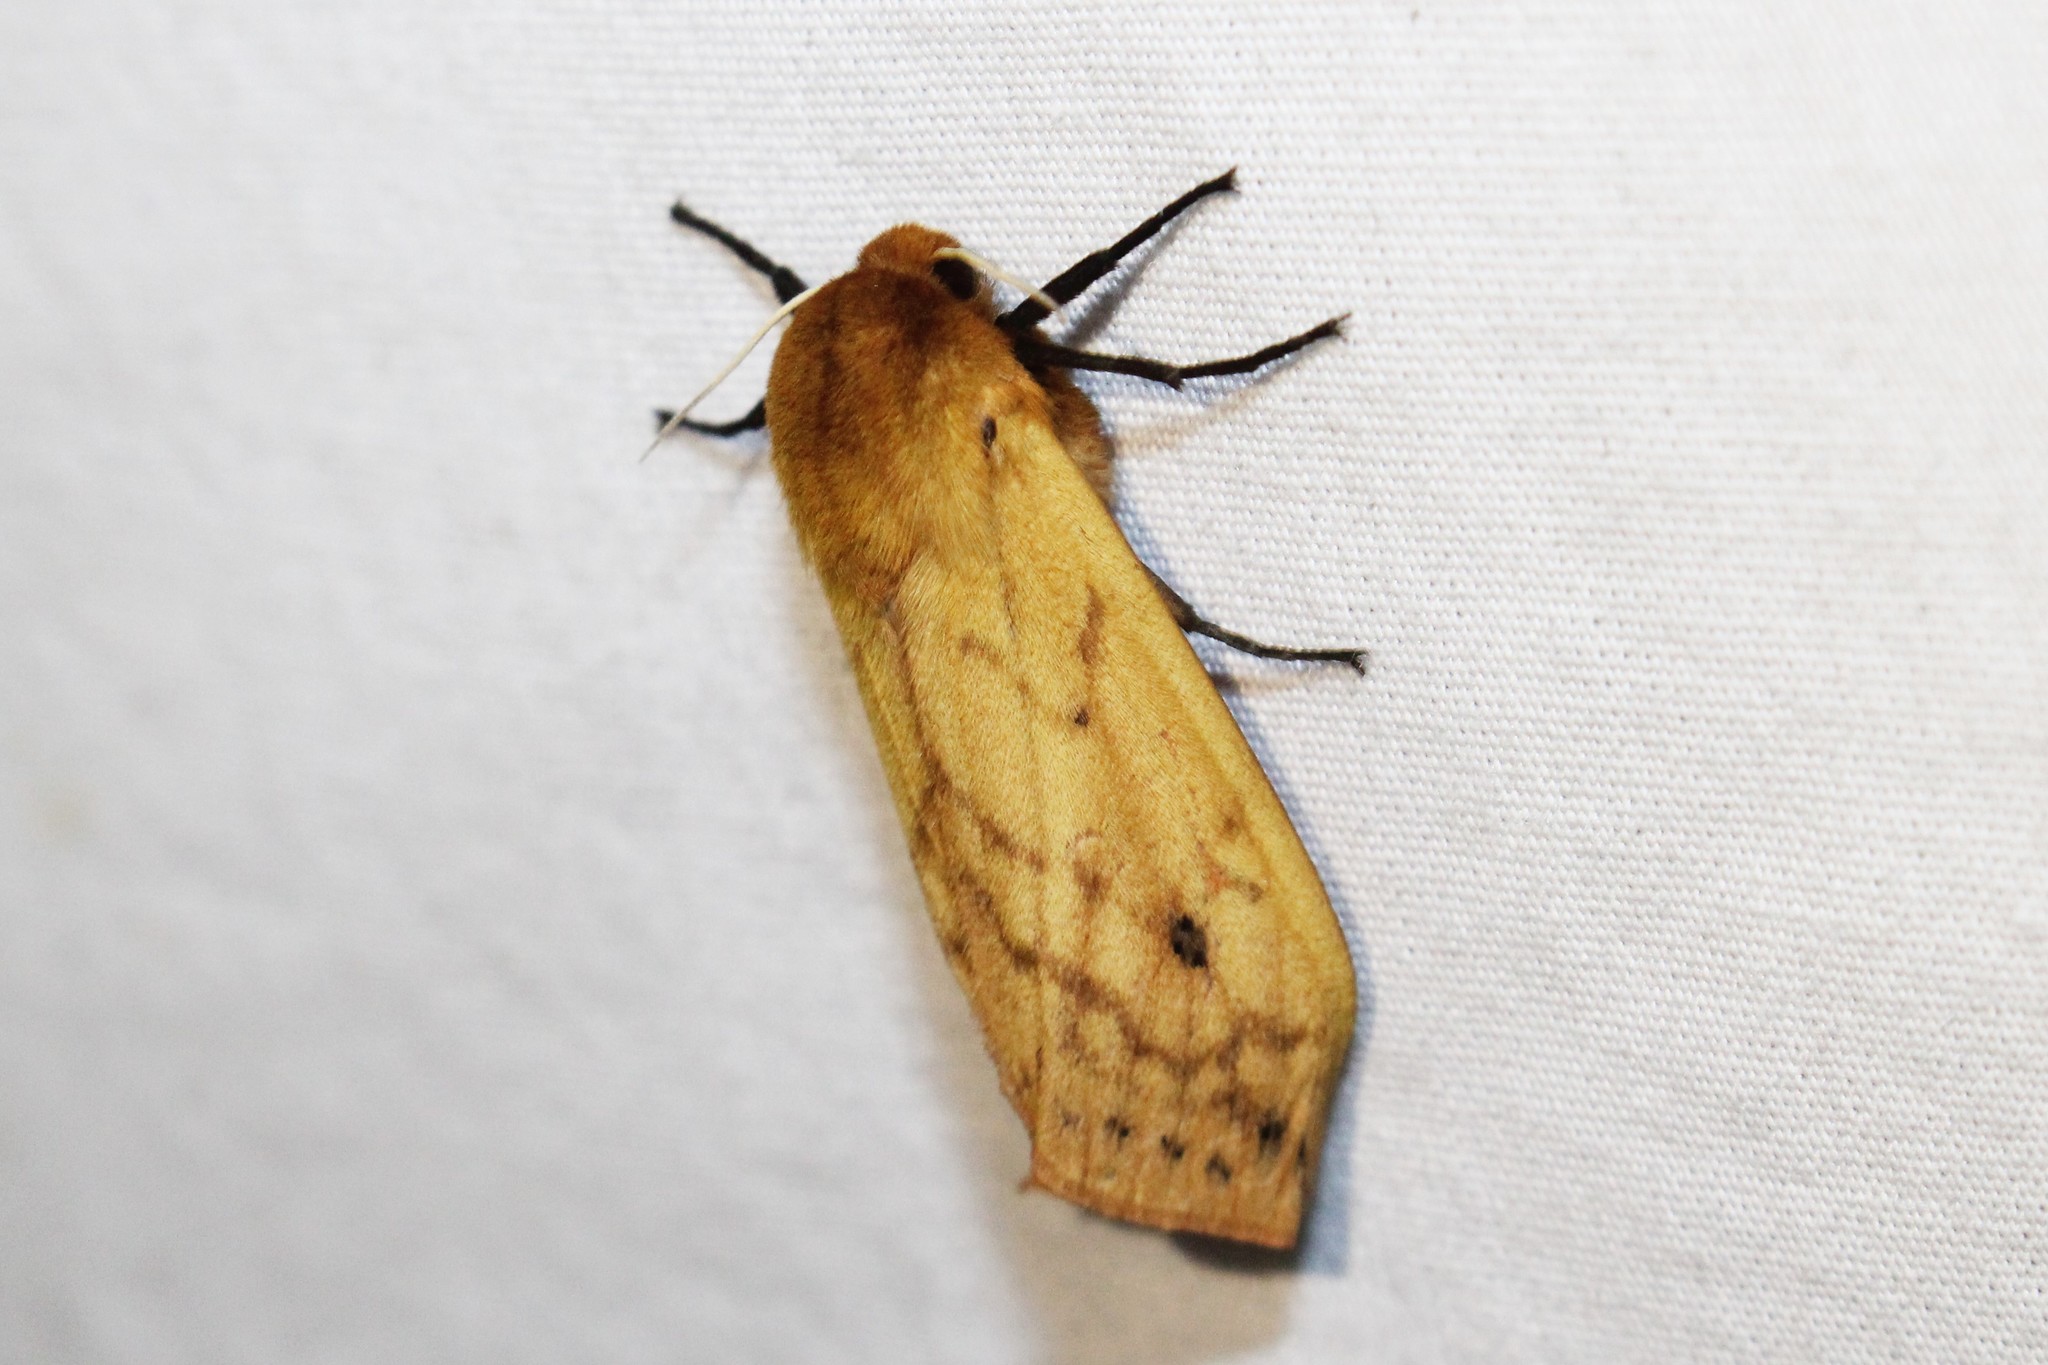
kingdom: Animalia
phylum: Arthropoda
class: Insecta
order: Lepidoptera
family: Erebidae
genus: Pyrrharctia
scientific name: Pyrrharctia isabella
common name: Isabella tiger moth
